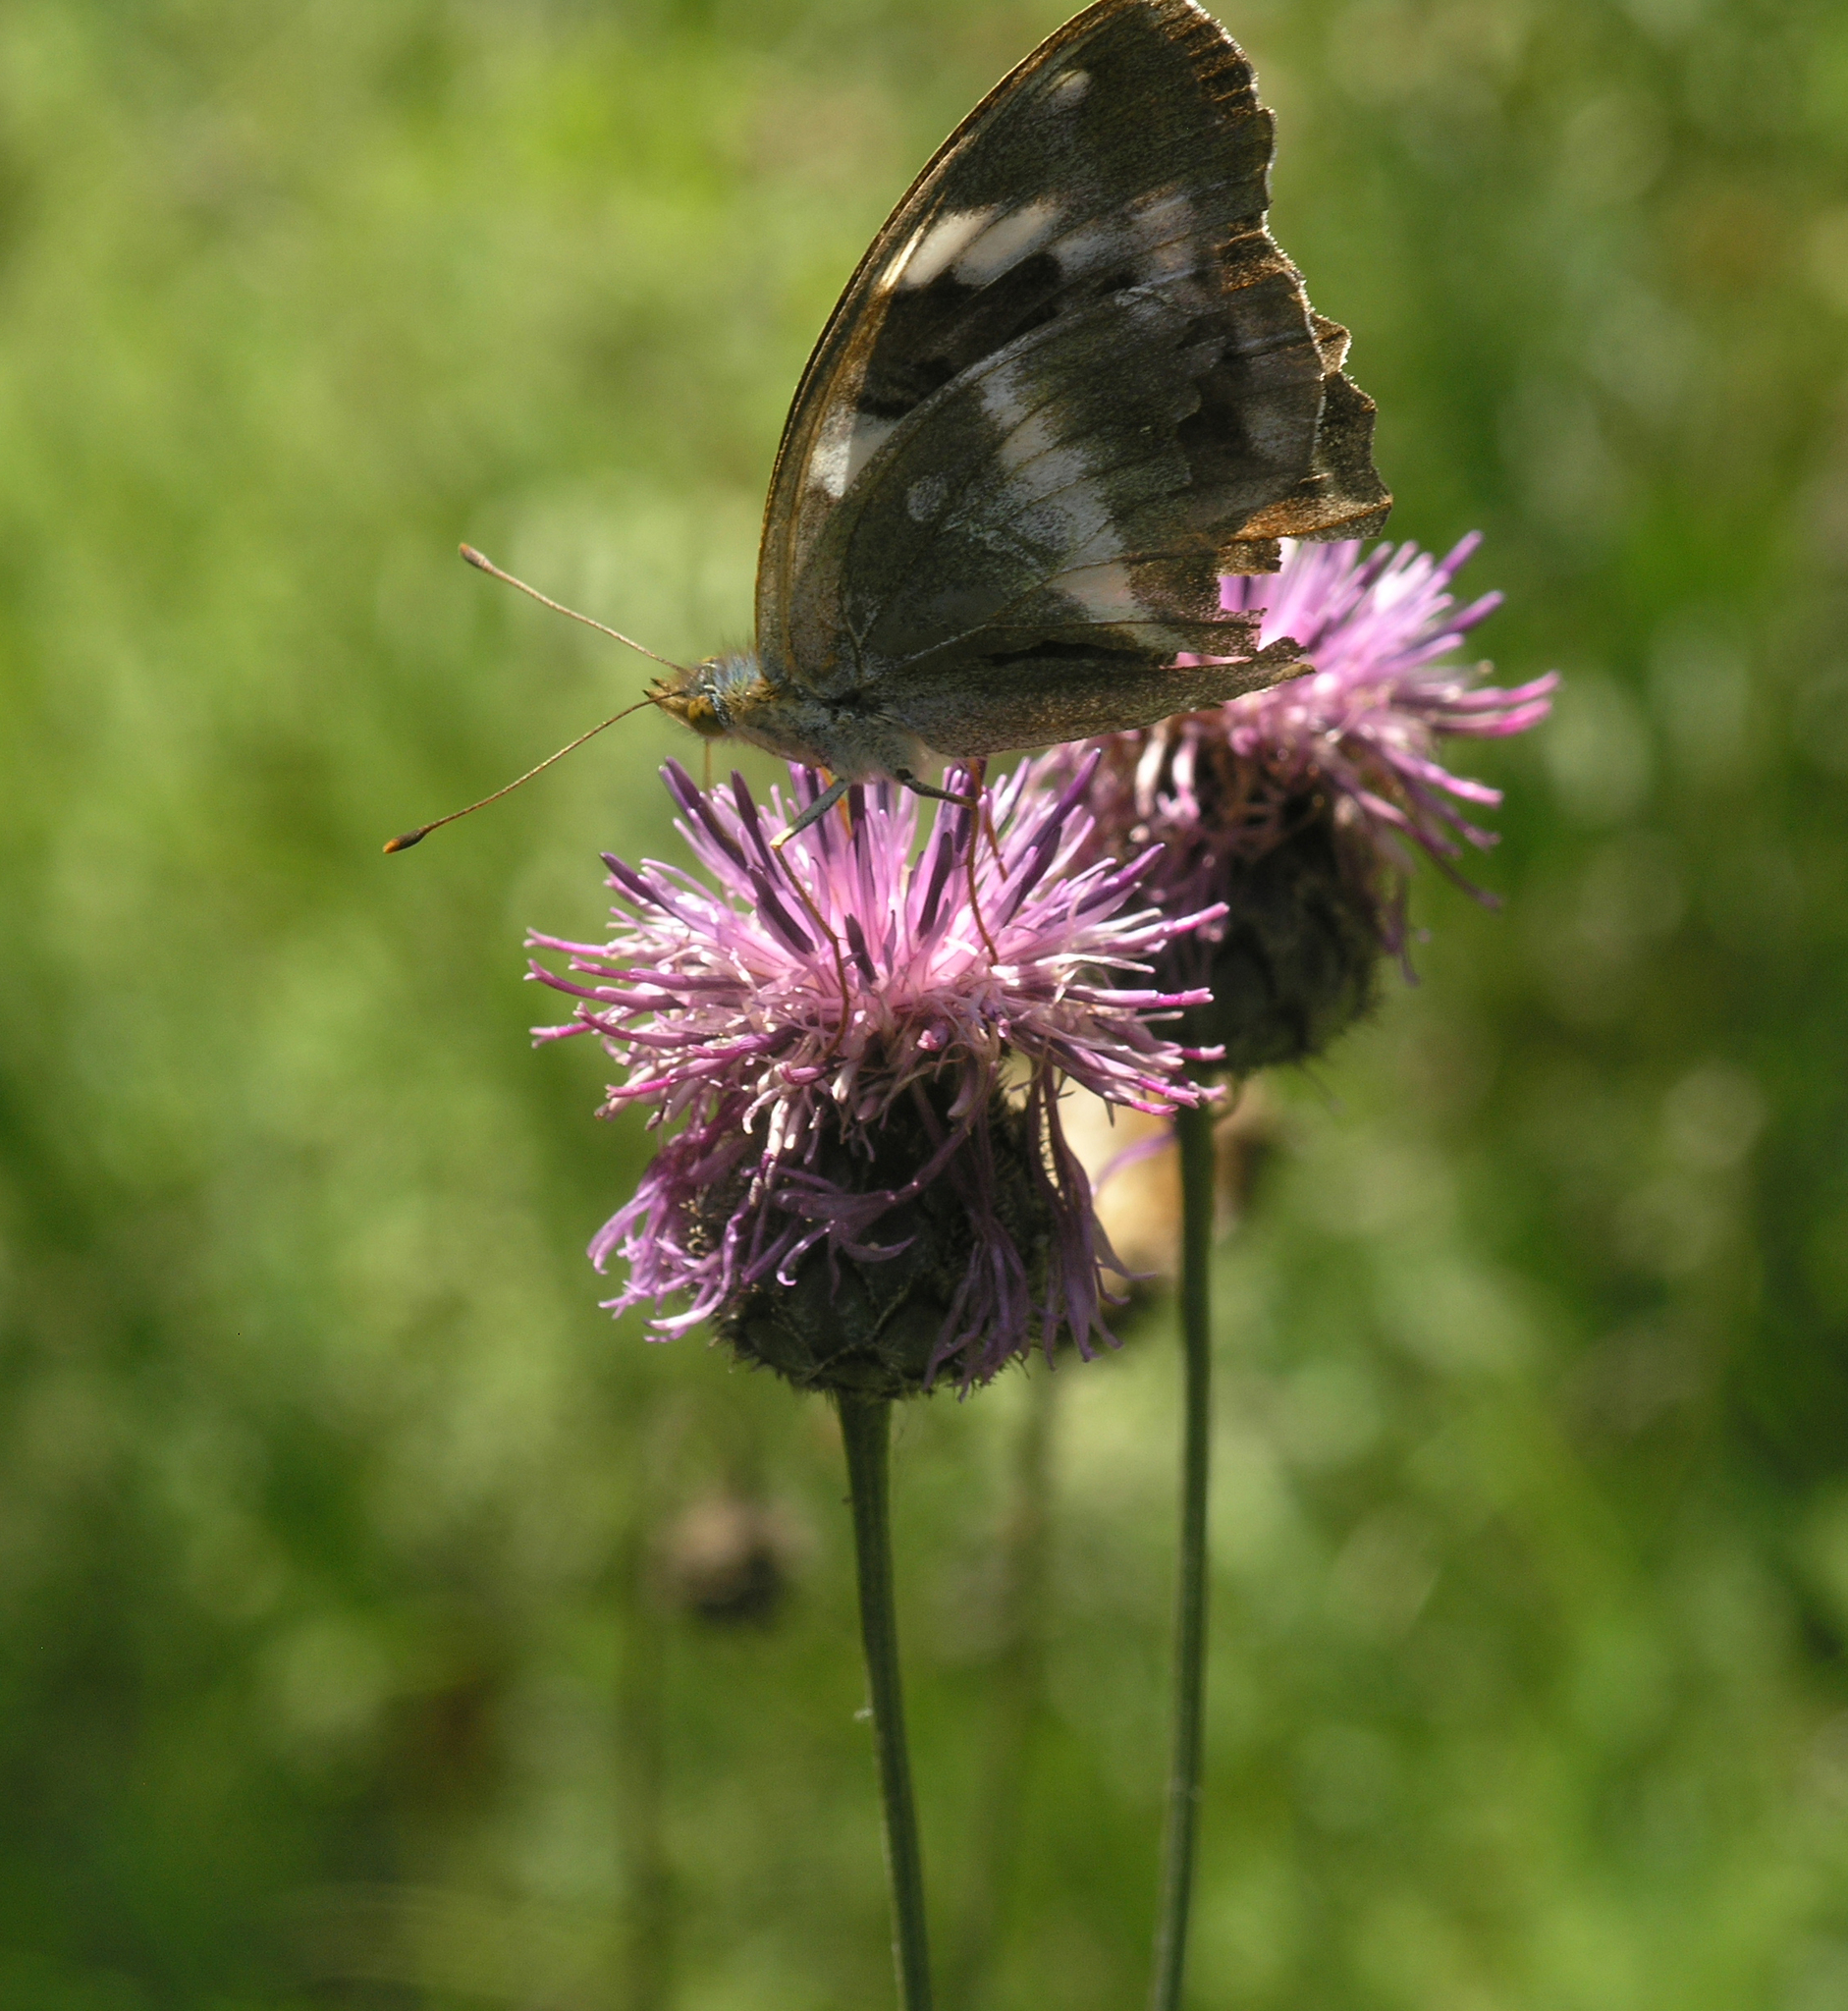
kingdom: Plantae
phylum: Tracheophyta
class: Magnoliopsida
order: Asterales
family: Asteraceae
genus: Centaurea
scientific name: Centaurea scabiosa
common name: Greater knapweed
